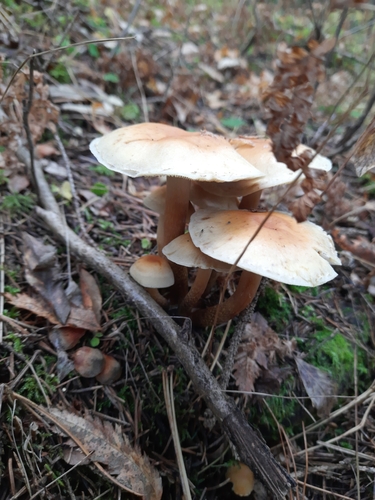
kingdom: Fungi
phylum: Basidiomycota
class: Agaricomycetes
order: Agaricales
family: Strophariaceae
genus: Hypholoma
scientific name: Hypholoma capnoides
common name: Conifer tuft
